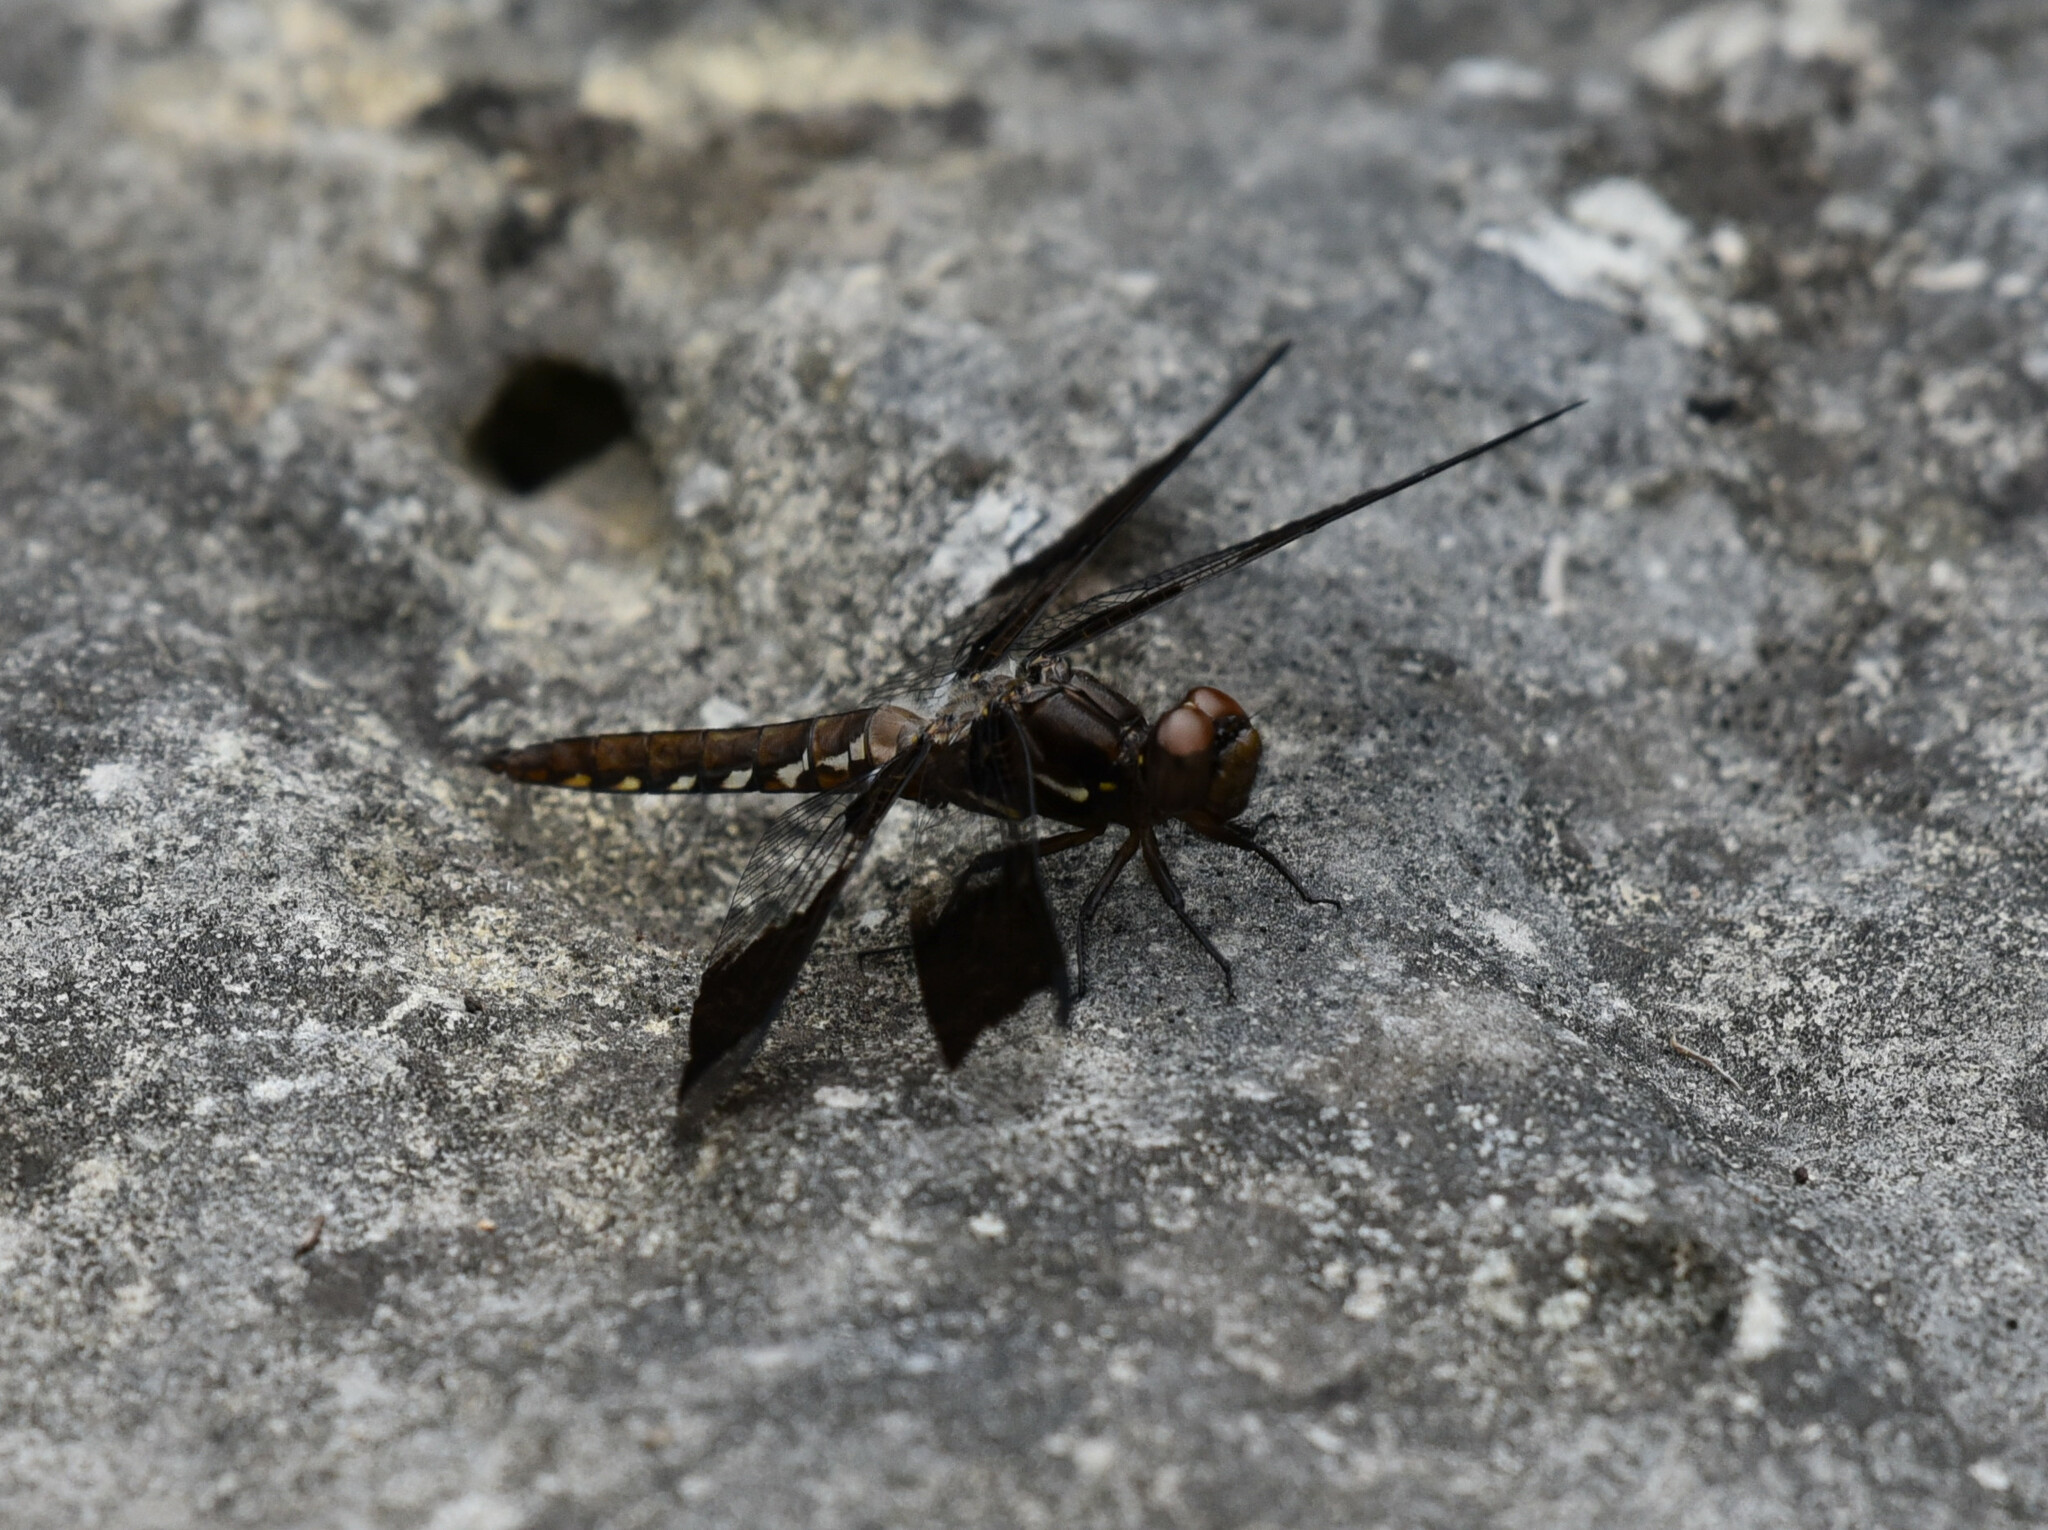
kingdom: Animalia
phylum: Arthropoda
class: Insecta
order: Odonata
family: Libellulidae
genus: Plathemis
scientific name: Plathemis lydia
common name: Common whitetail
